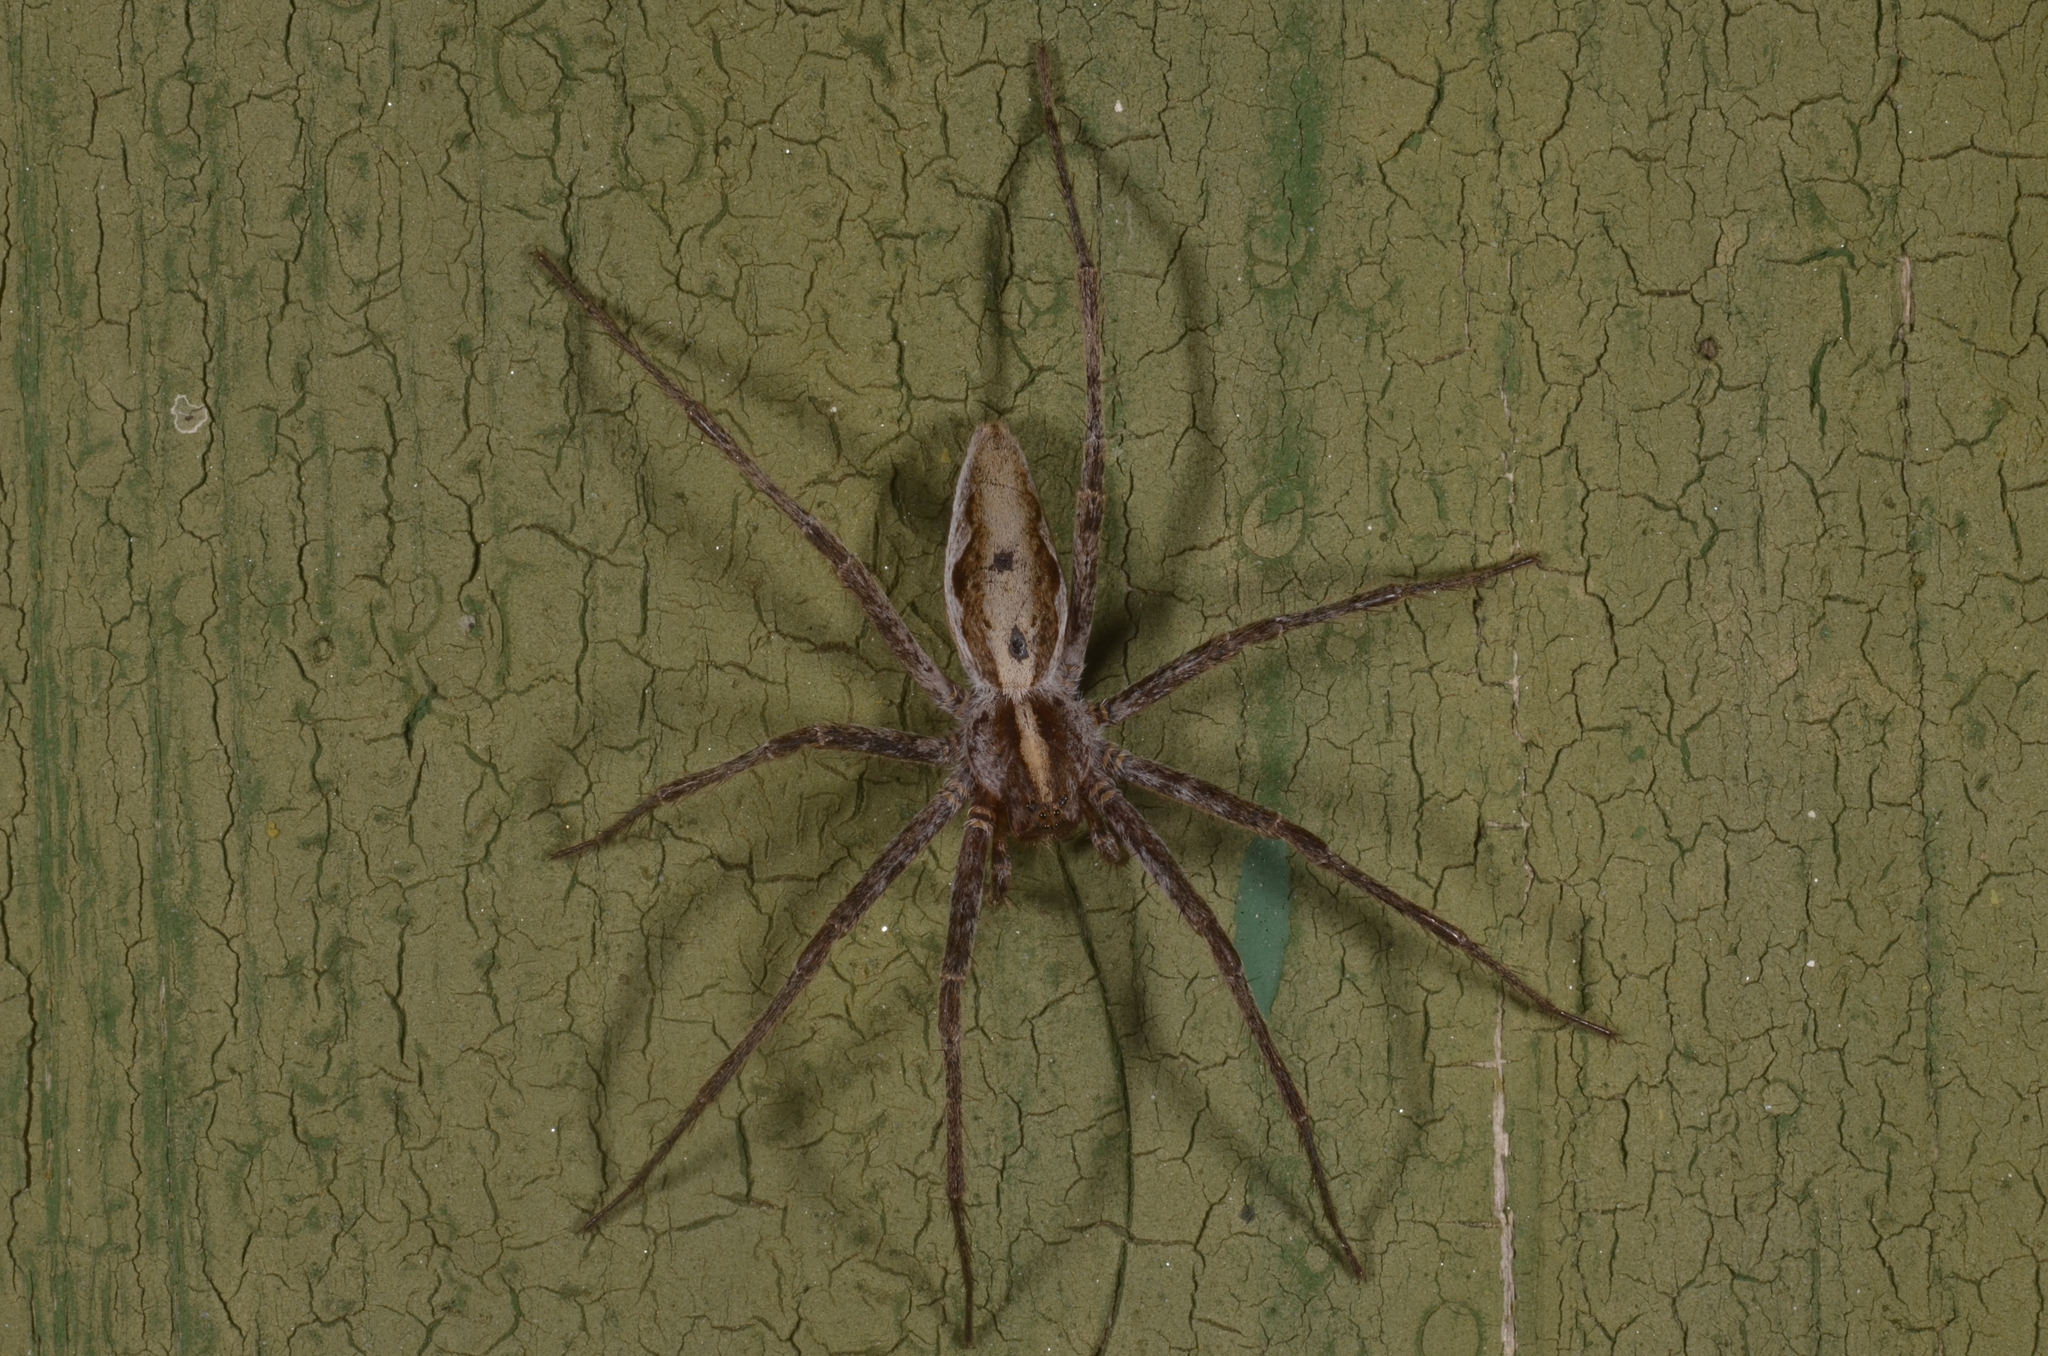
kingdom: Animalia
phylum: Arthropoda
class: Arachnida
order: Araneae
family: Pisauridae
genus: Pisaura
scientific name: Pisaura mirabilis
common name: Tent spider
